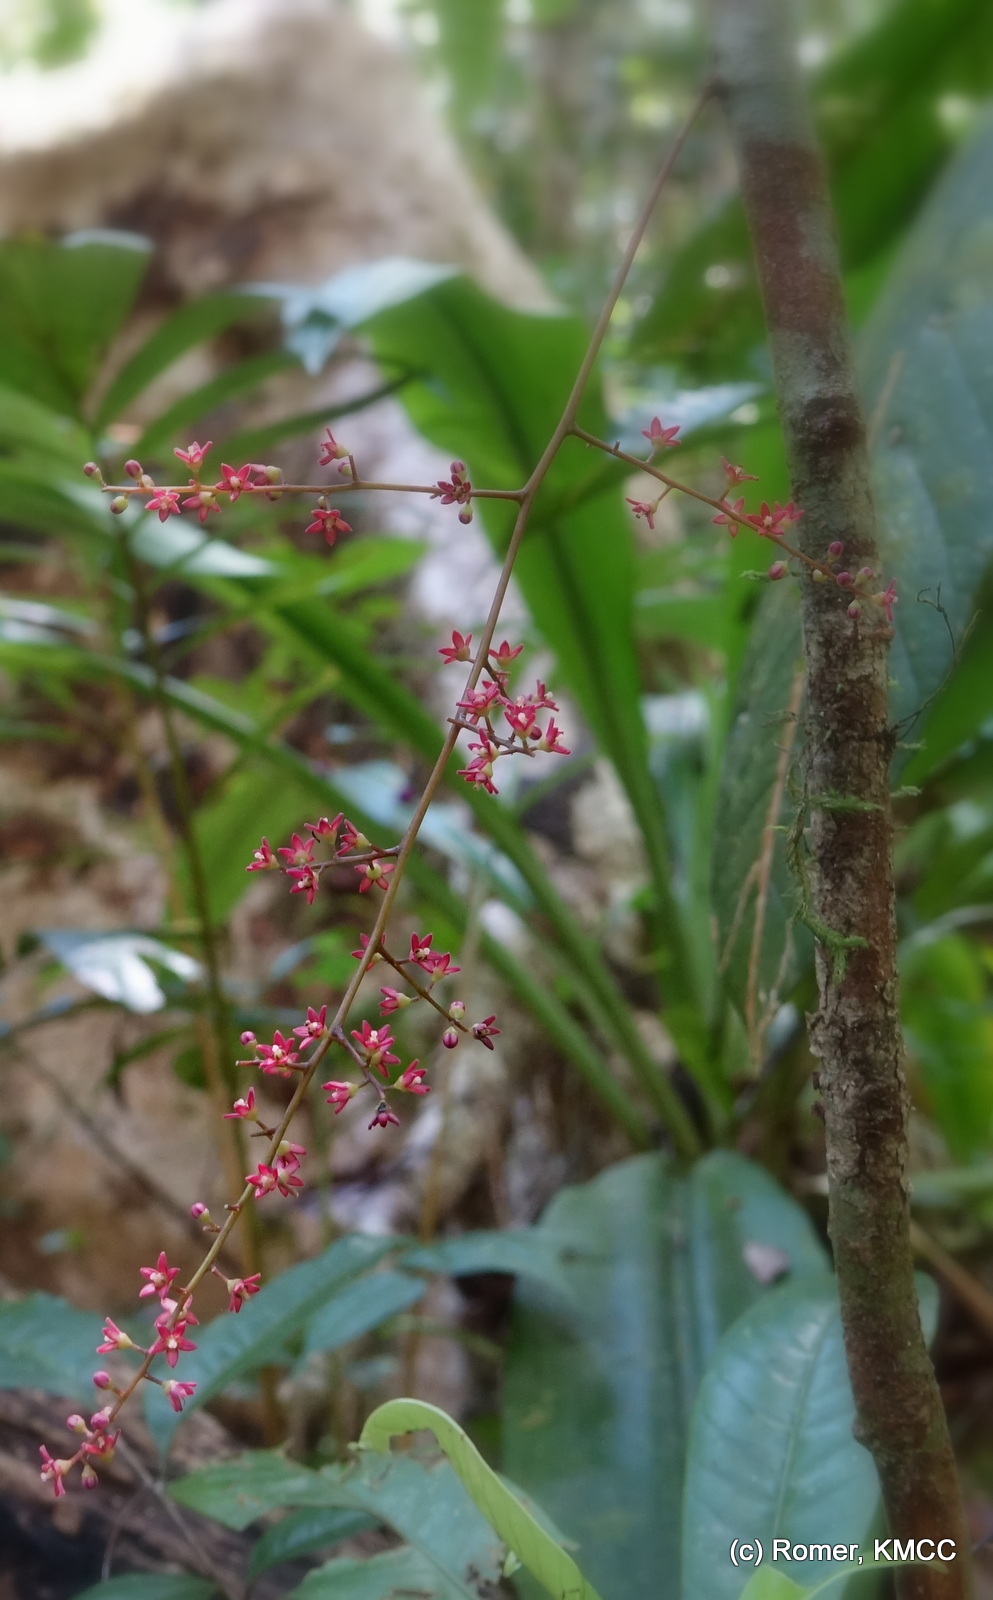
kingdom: Plantae
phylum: Tracheophyta
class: Magnoliopsida
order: Sapindales
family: Anacardiaceae
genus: Sorindeia
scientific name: Sorindeia madagascariensis
